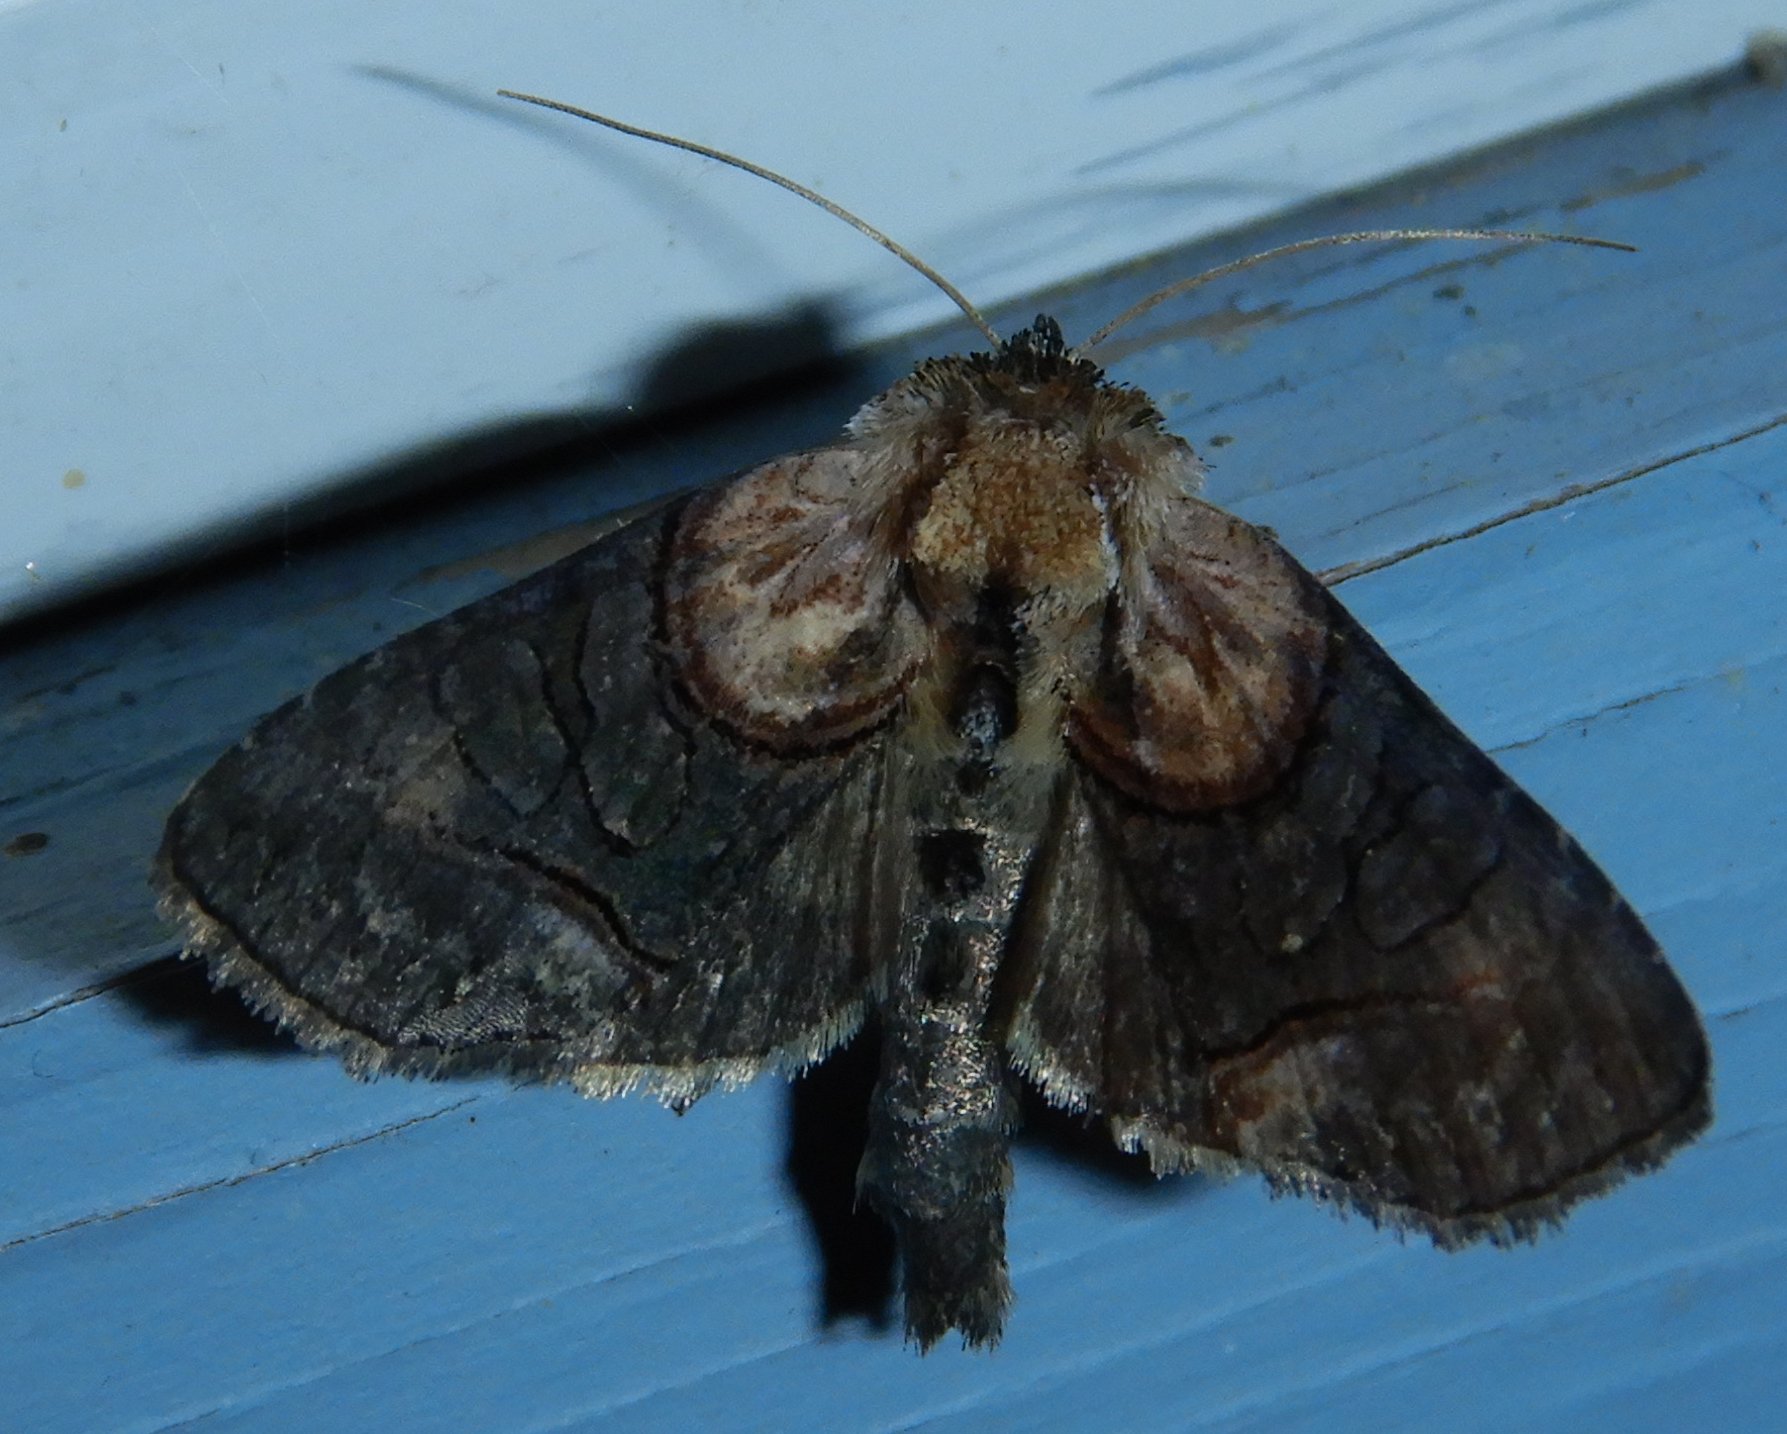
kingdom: Animalia
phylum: Arthropoda
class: Insecta
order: Lepidoptera
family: Noctuidae
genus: Abrostola
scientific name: Abrostola ovalis
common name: Oval abrostola
